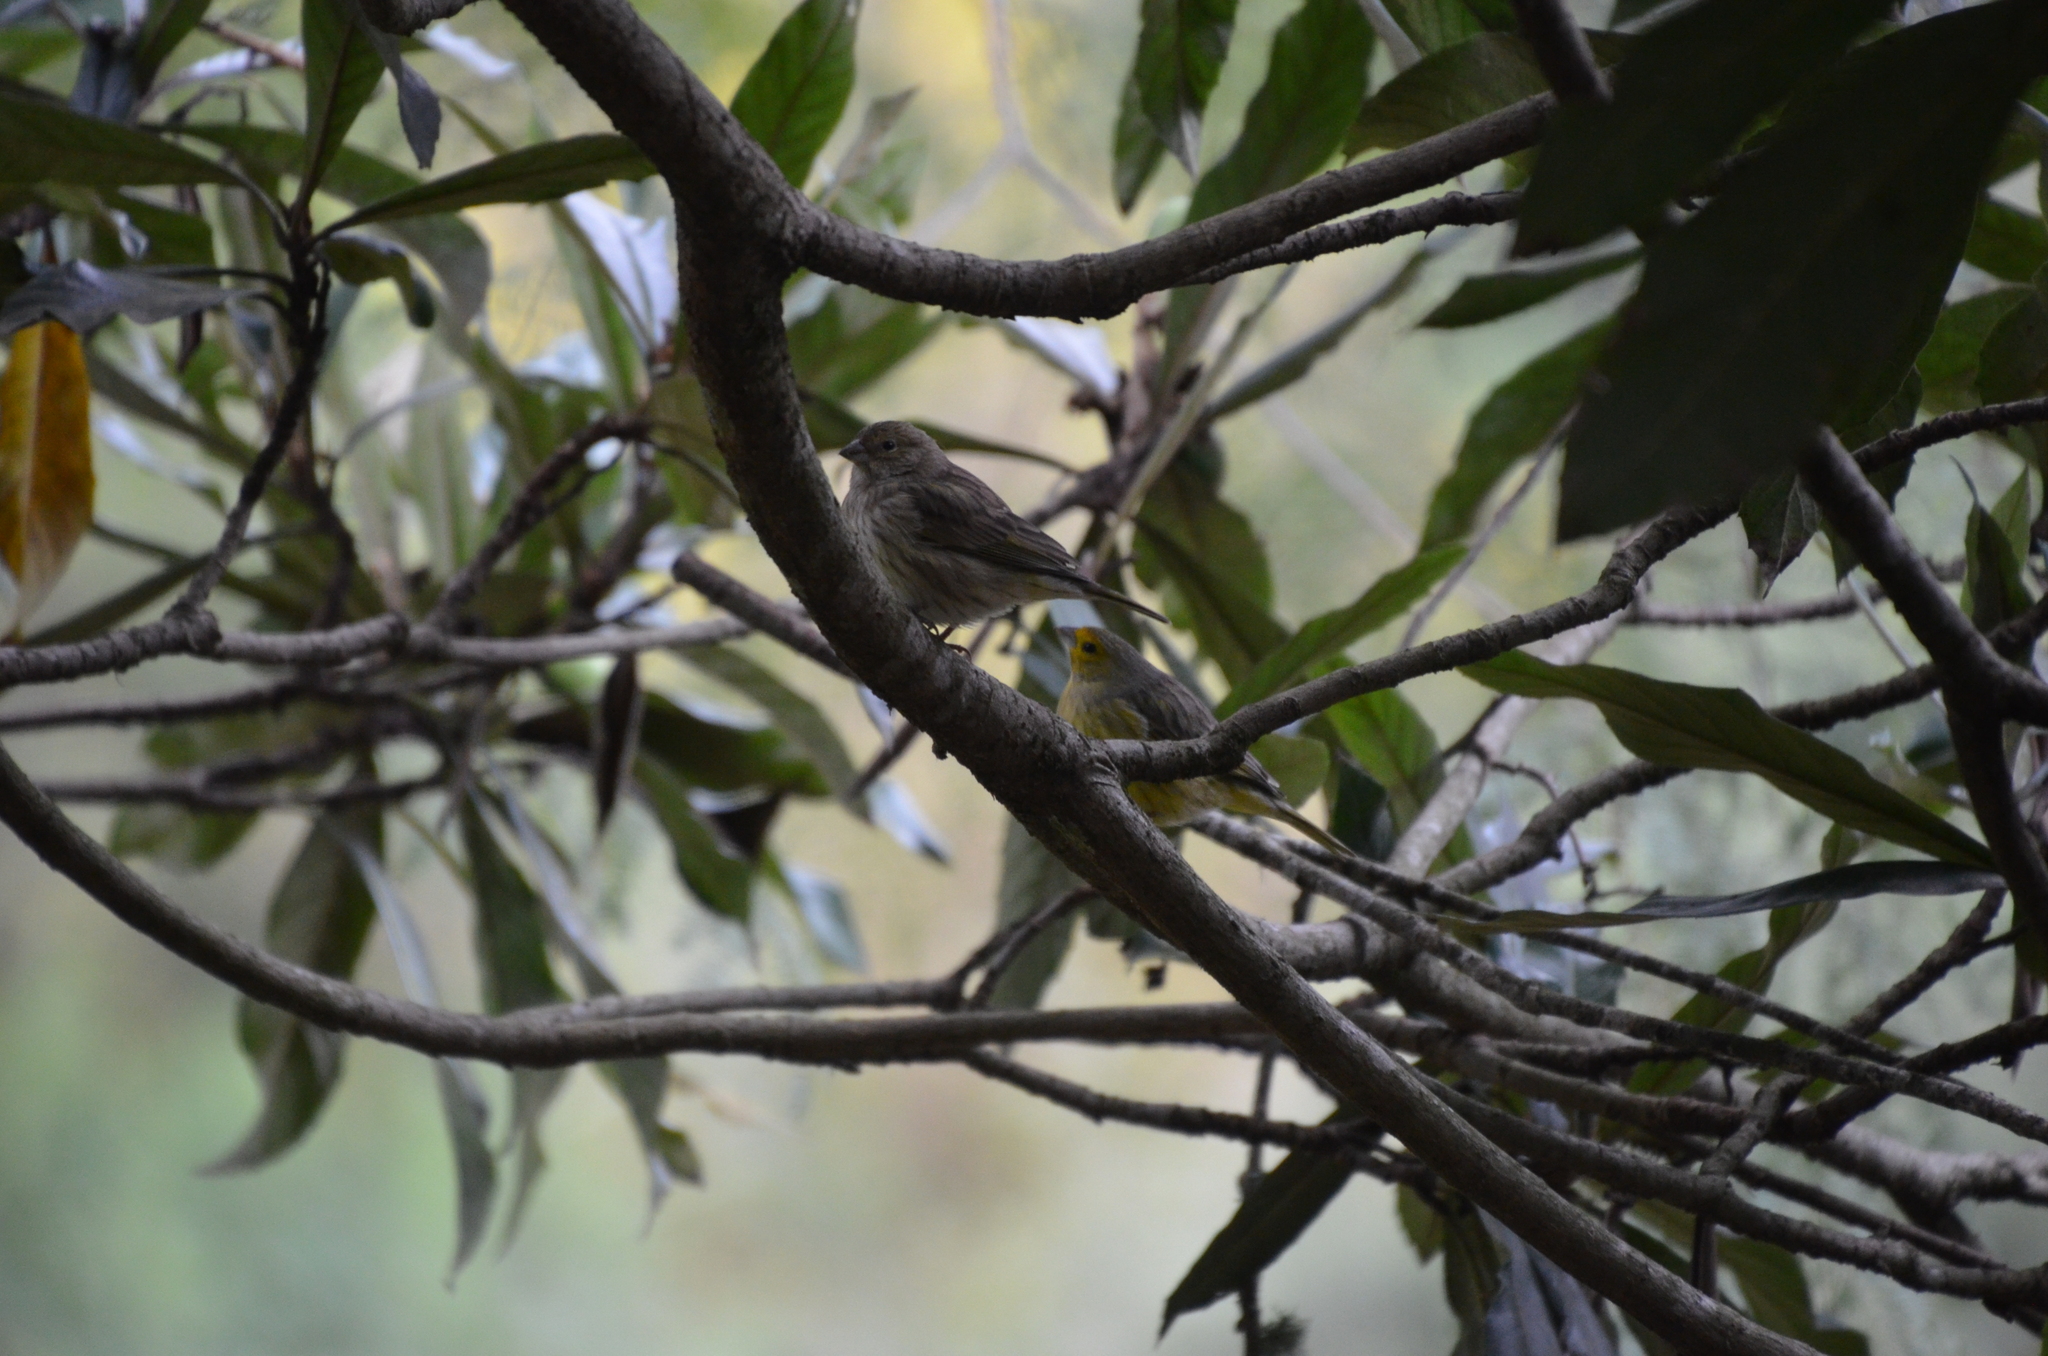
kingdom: Animalia
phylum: Chordata
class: Aves
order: Passeriformes
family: Thraupidae
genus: Sicalis
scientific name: Sicalis flaveola
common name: Saffron finch
